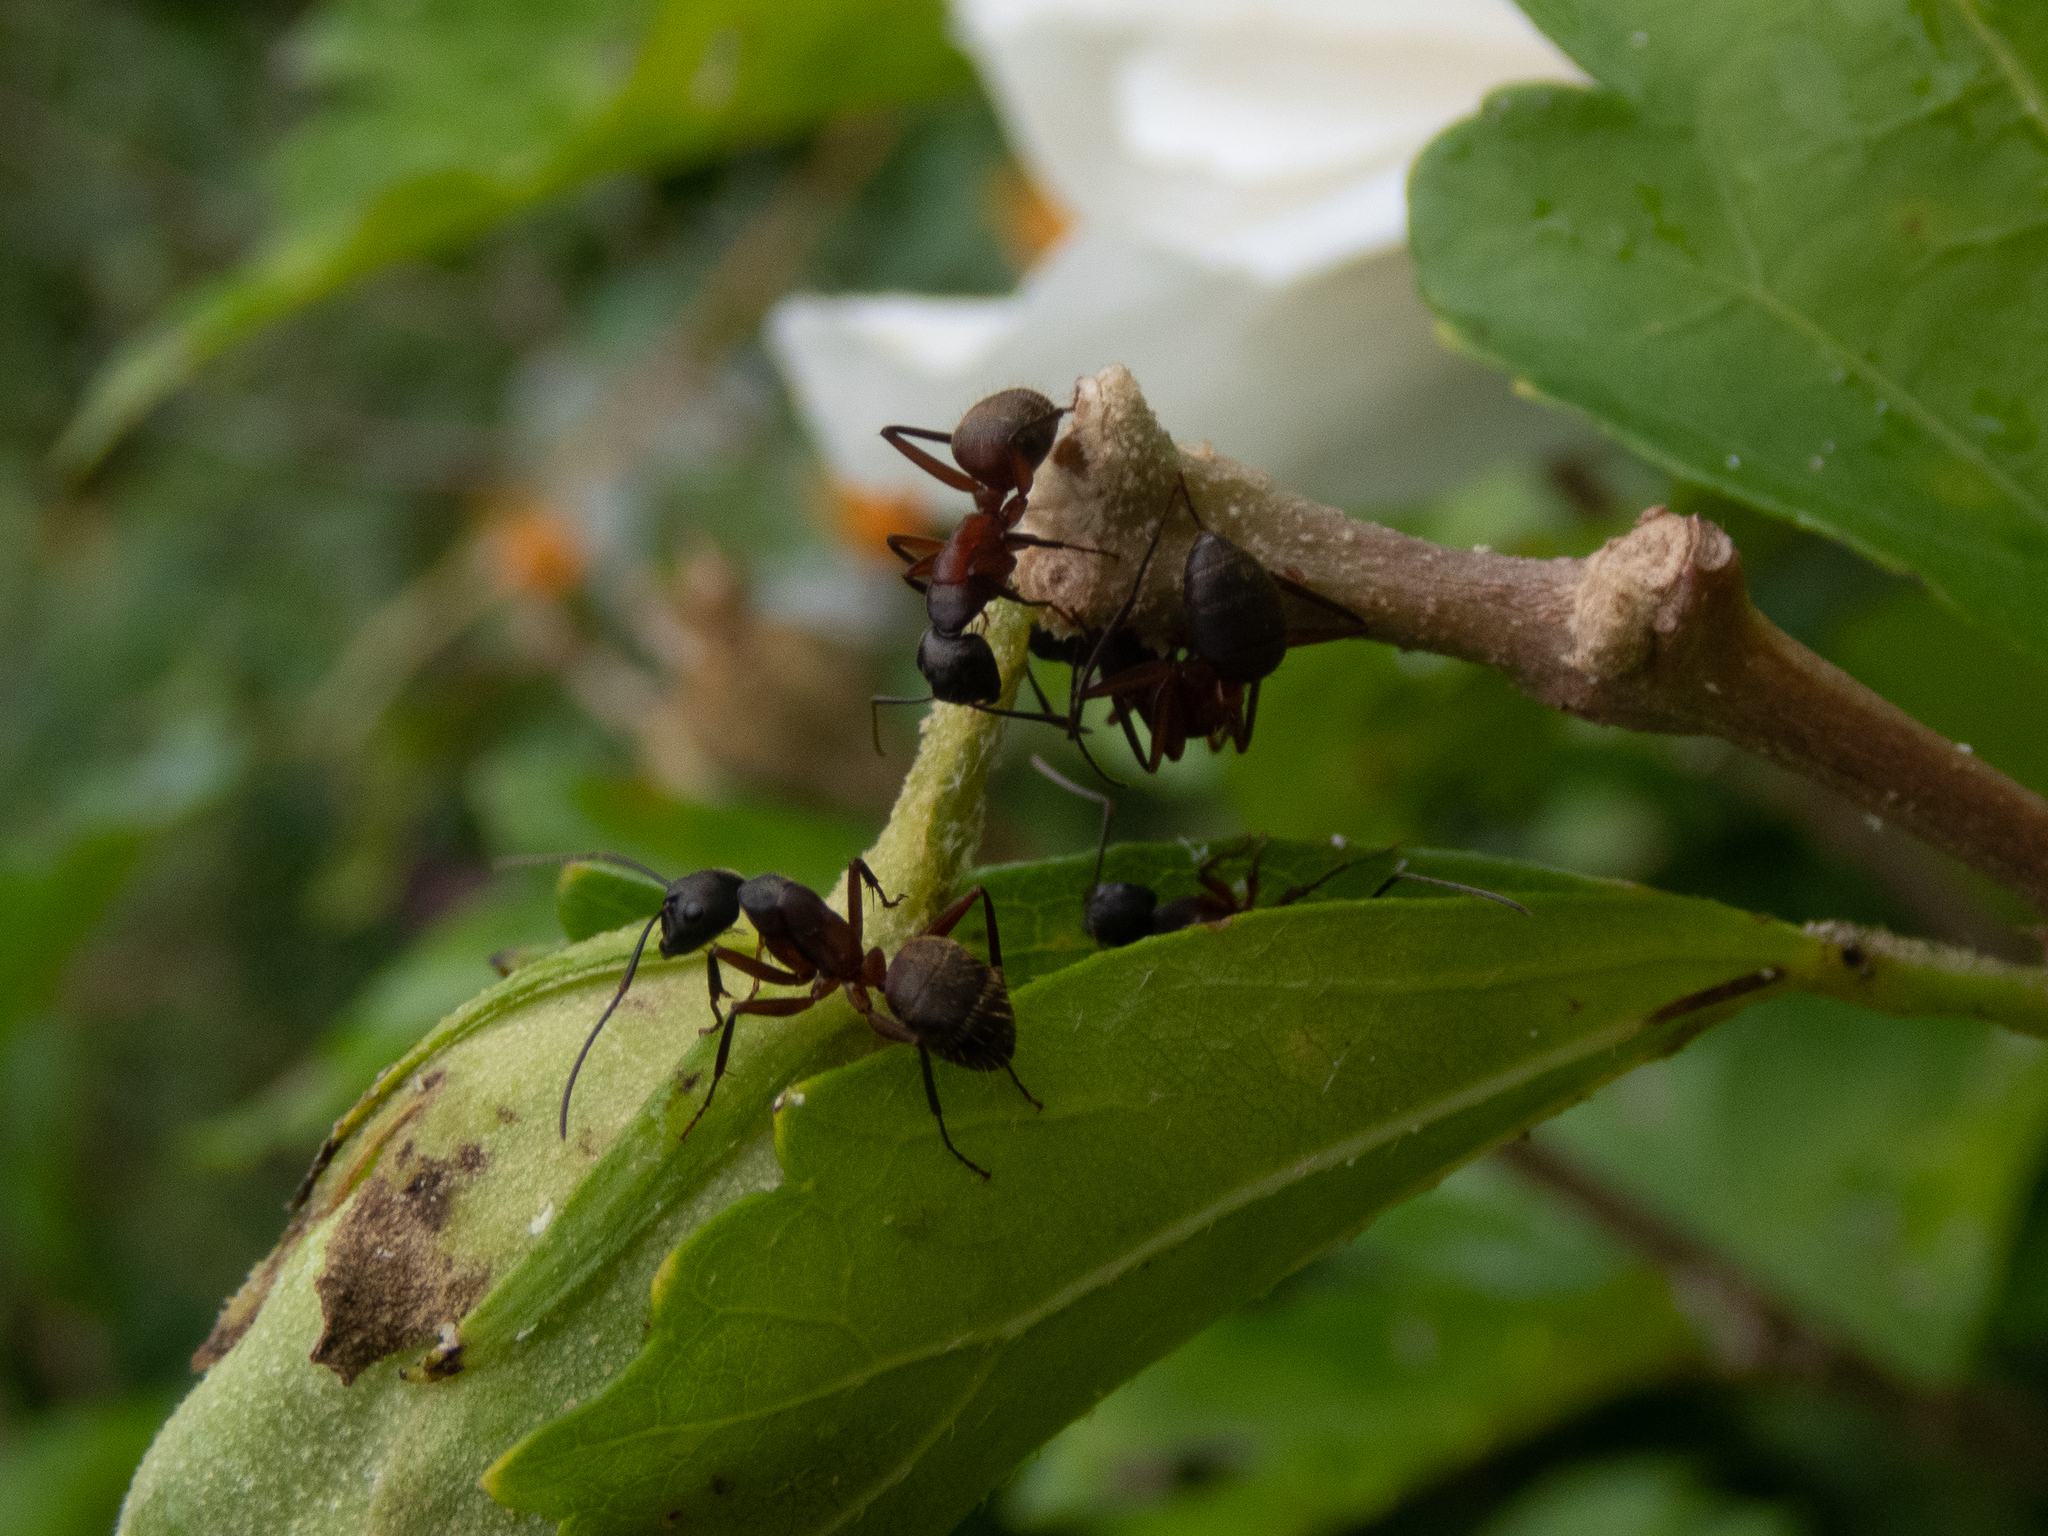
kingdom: Animalia
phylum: Arthropoda
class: Insecta
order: Hymenoptera
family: Formicidae
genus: Camponotus
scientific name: Camponotus chromaiodes
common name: Red carpenter ant
